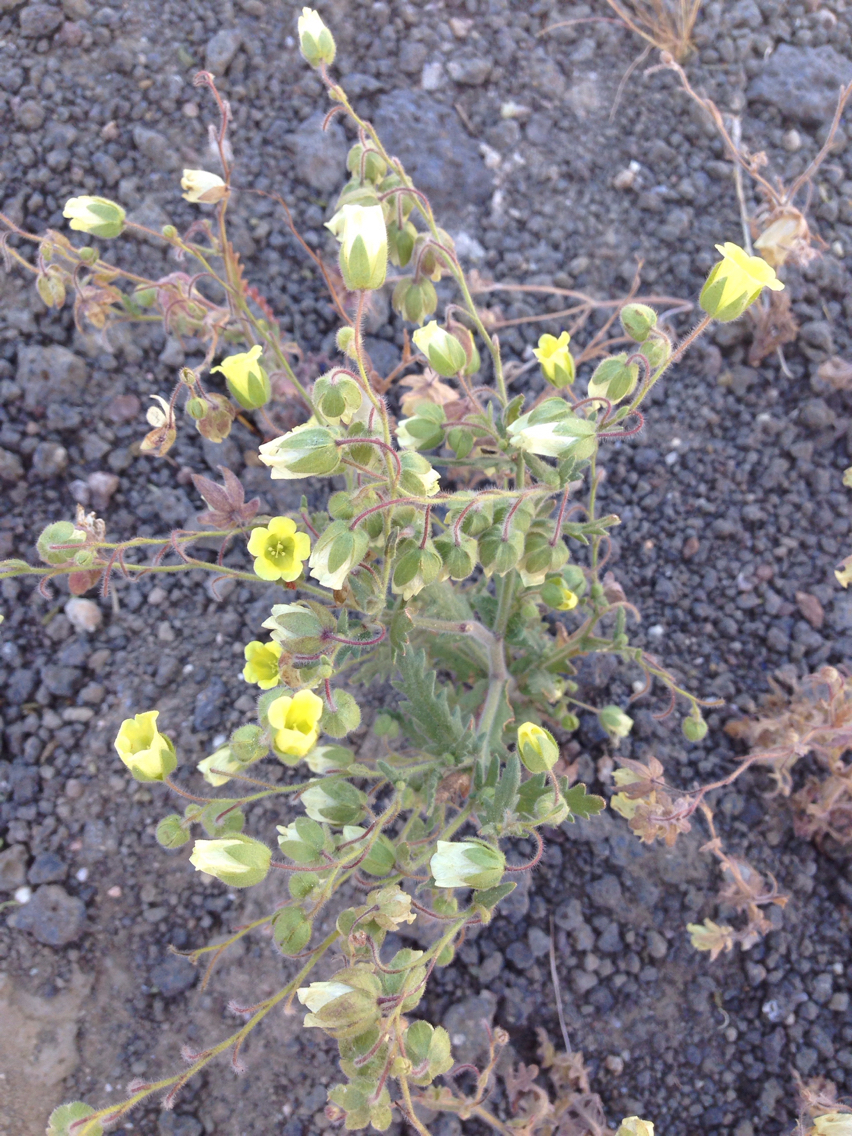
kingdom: Plantae
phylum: Tracheophyta
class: Magnoliopsida
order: Boraginales
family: Hydrophyllaceae
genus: Emmenanthe
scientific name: Emmenanthe penduliflora
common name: Whispering-bells
